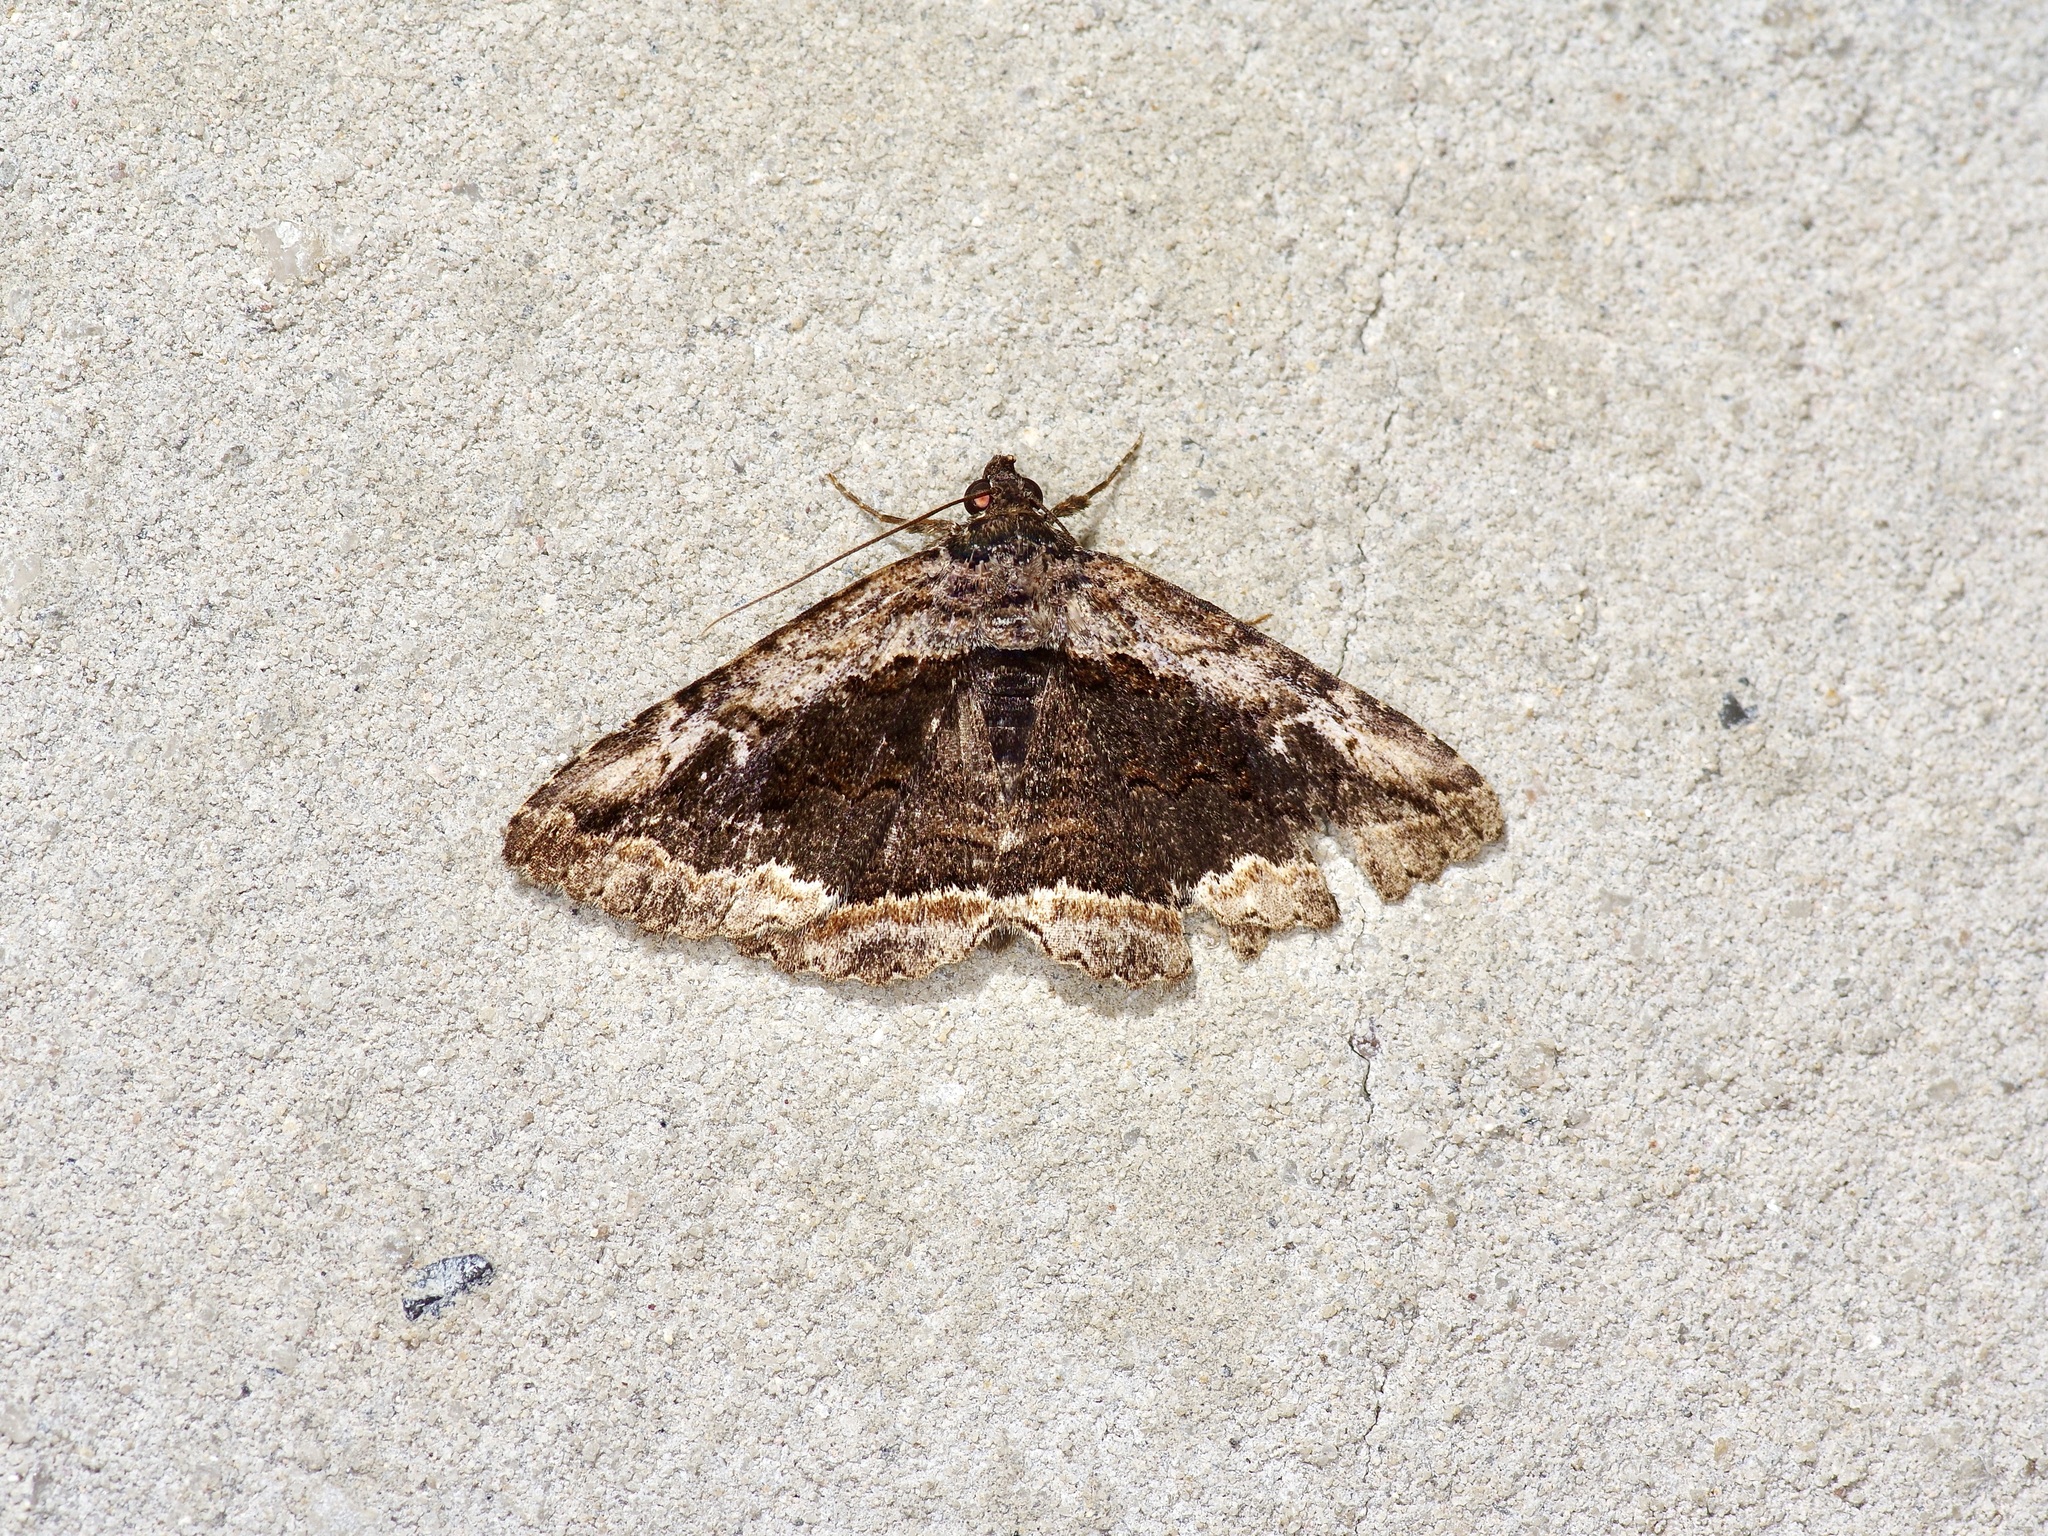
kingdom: Animalia
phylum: Arthropoda
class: Insecta
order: Lepidoptera
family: Erebidae
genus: Zaleops
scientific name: Zaleops umbrina
